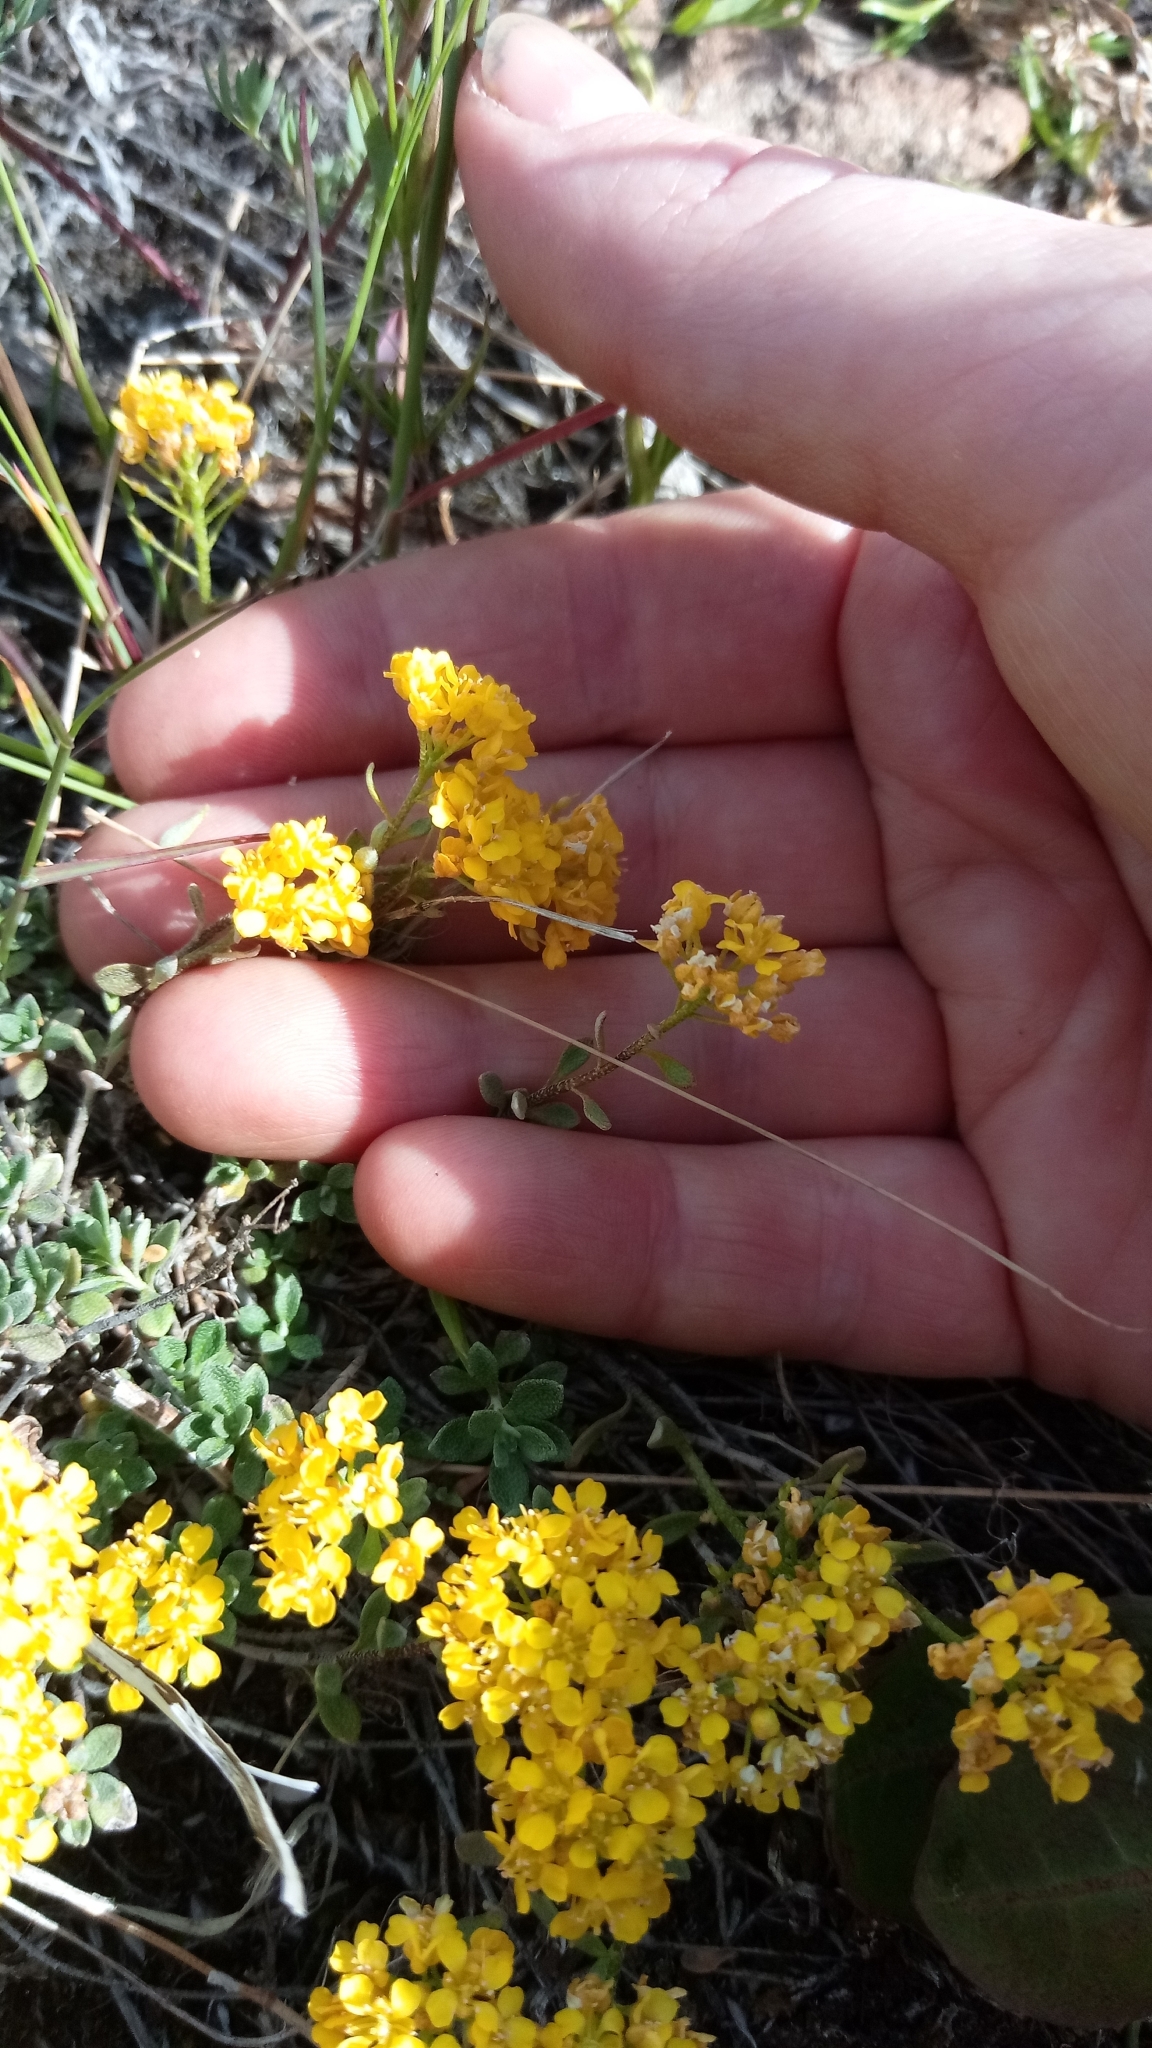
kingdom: Plantae
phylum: Tracheophyta
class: Magnoliopsida
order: Brassicales
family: Brassicaceae
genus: Odontarrhena
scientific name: Odontarrhena obovata
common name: American alyssum
